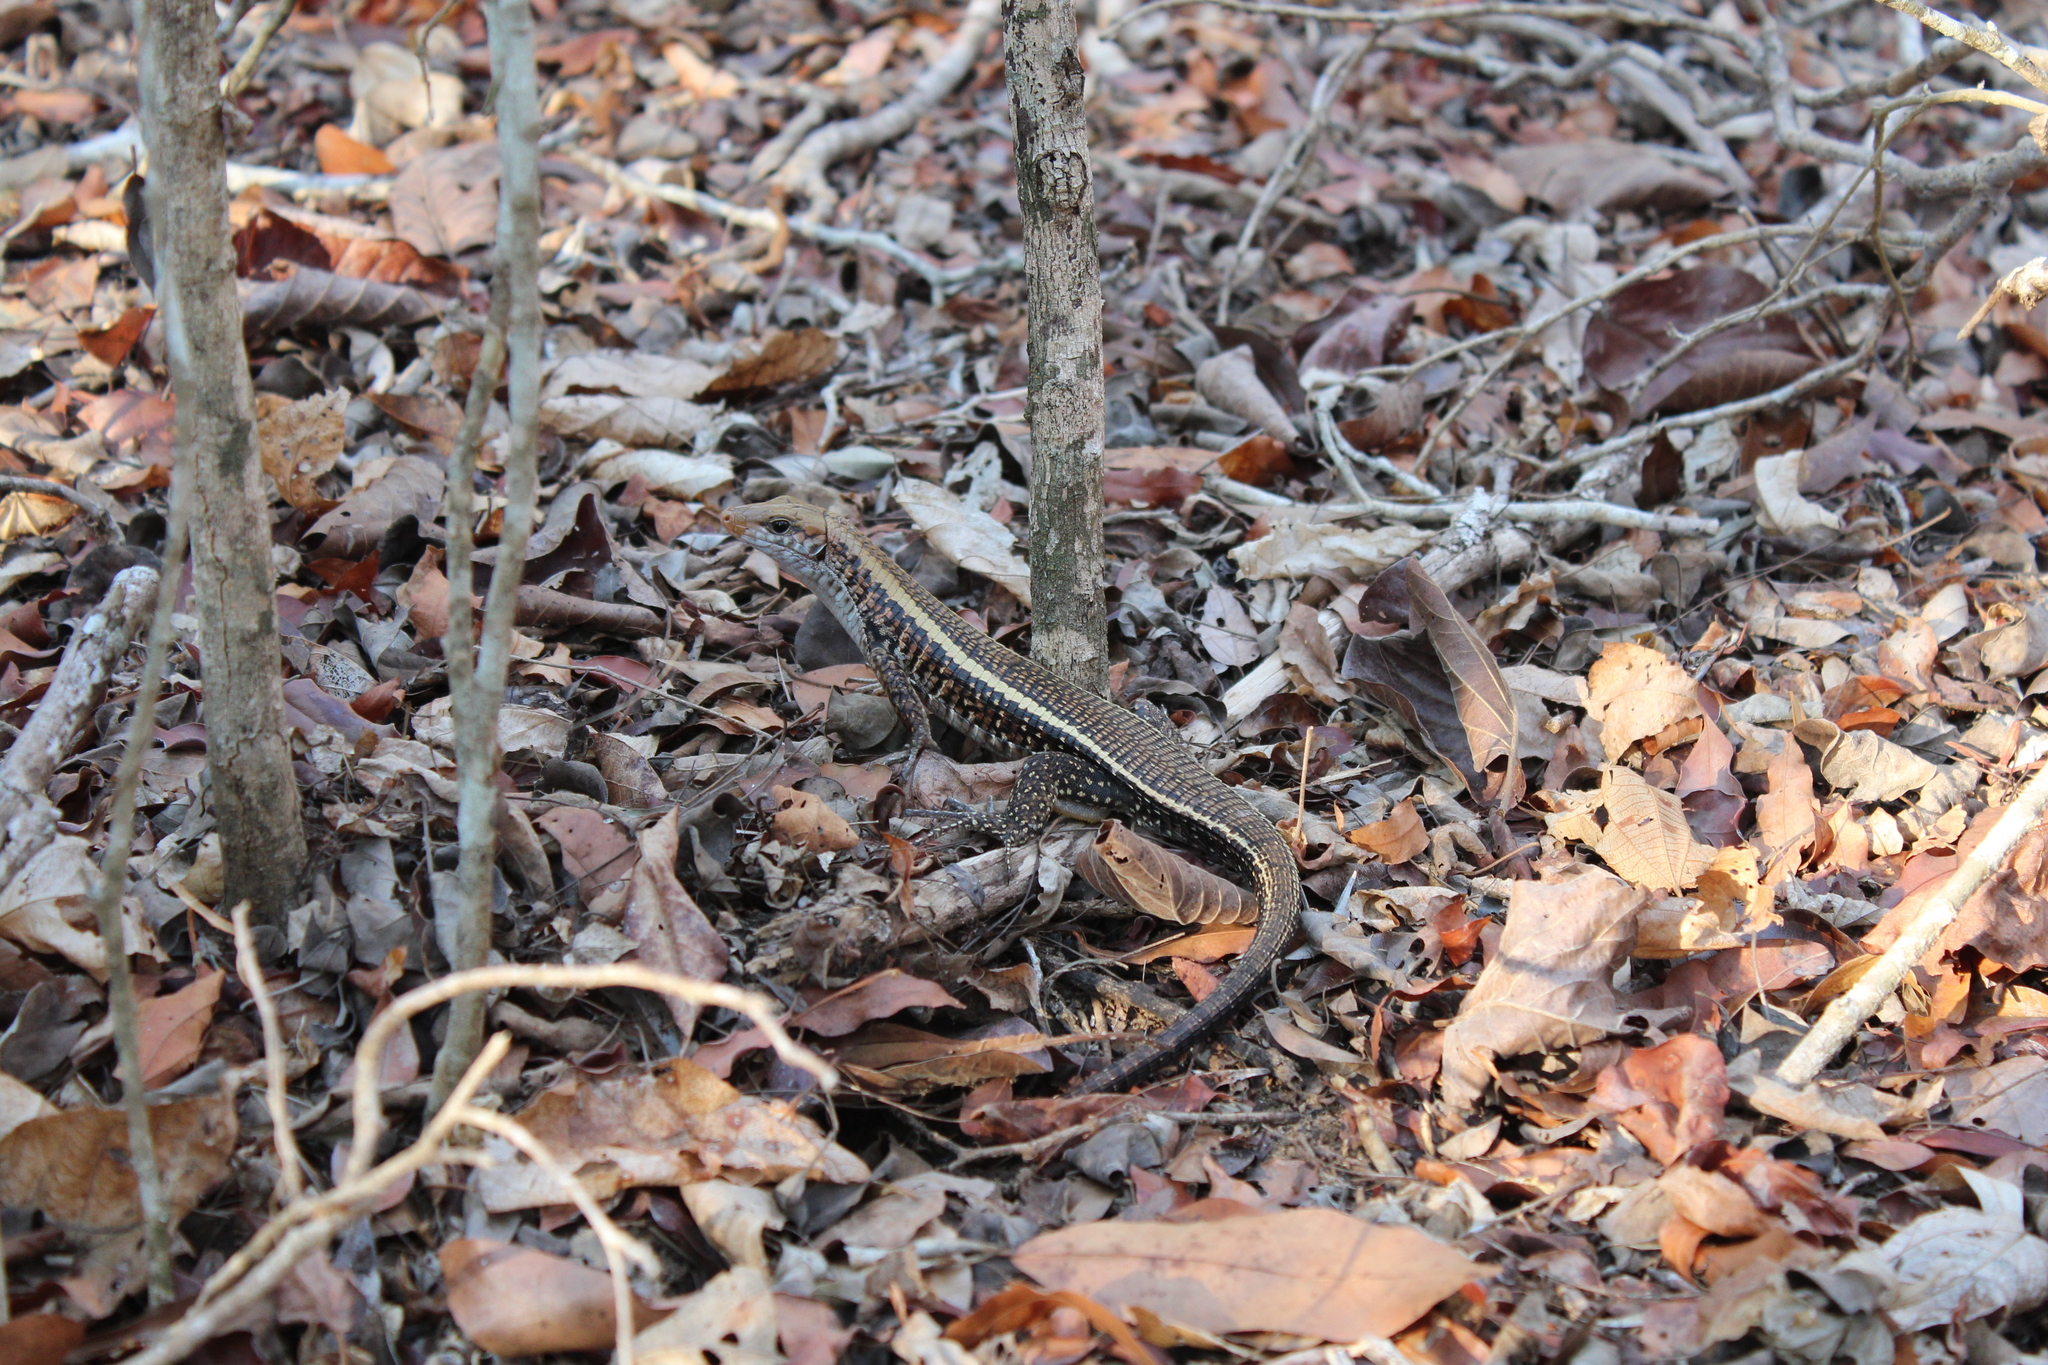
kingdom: Animalia
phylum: Chordata
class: Squamata
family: Gerrhosauridae
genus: Zonosaurus
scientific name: Zonosaurus laticaudatus
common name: Western girdled lizard
